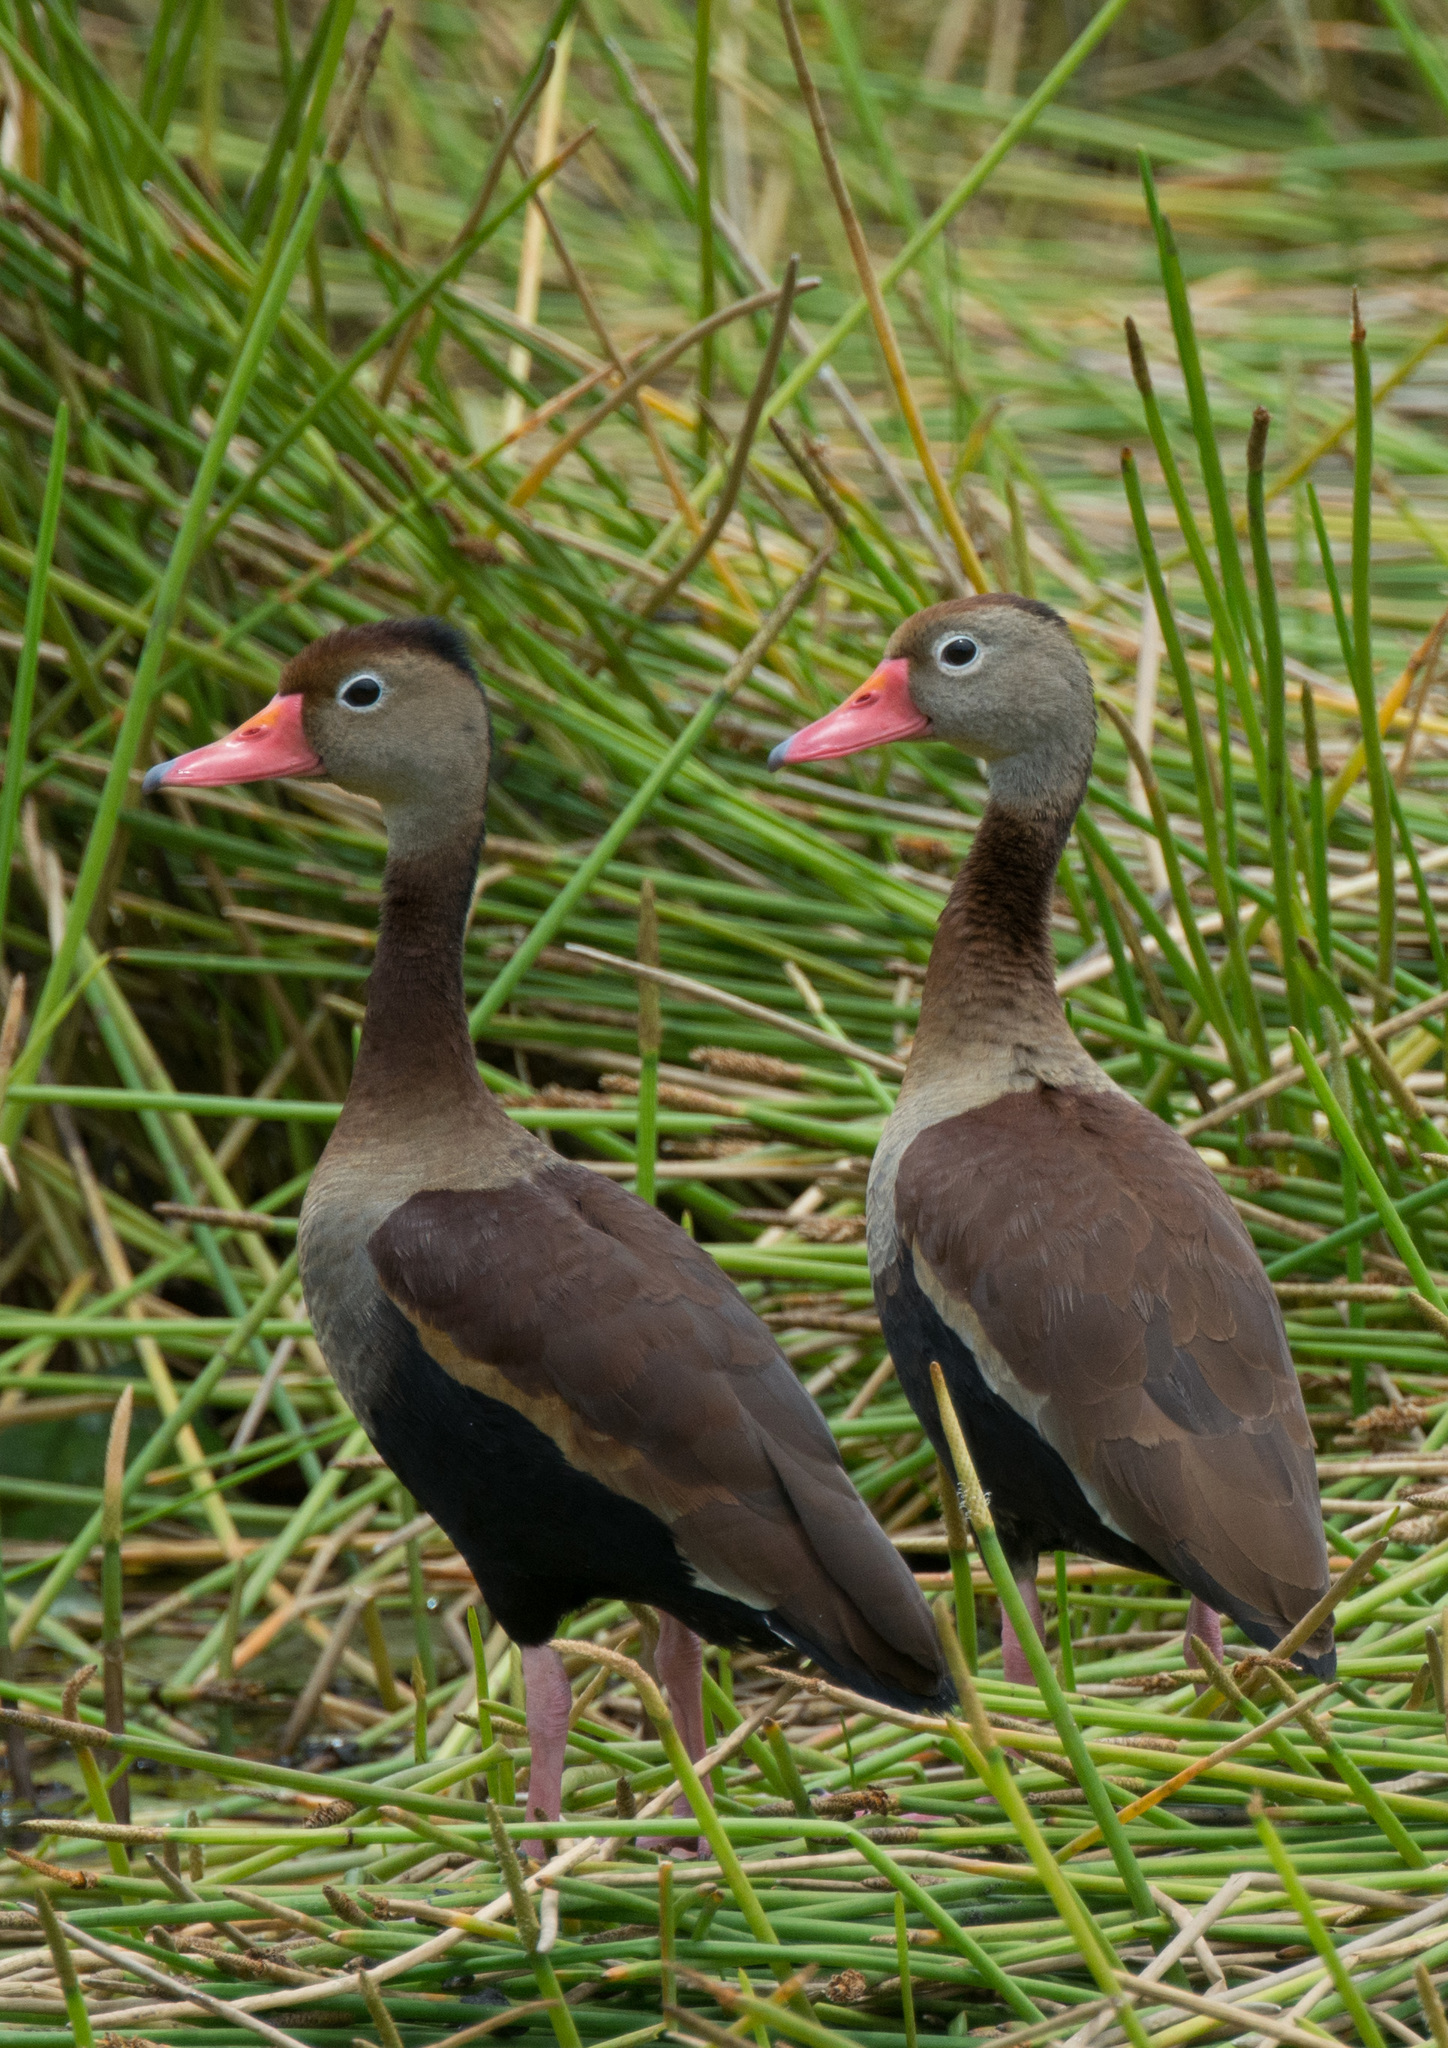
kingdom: Animalia
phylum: Chordata
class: Aves
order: Anseriformes
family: Anatidae
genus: Dendrocygna
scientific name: Dendrocygna autumnalis
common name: Black-bellied whistling duck
